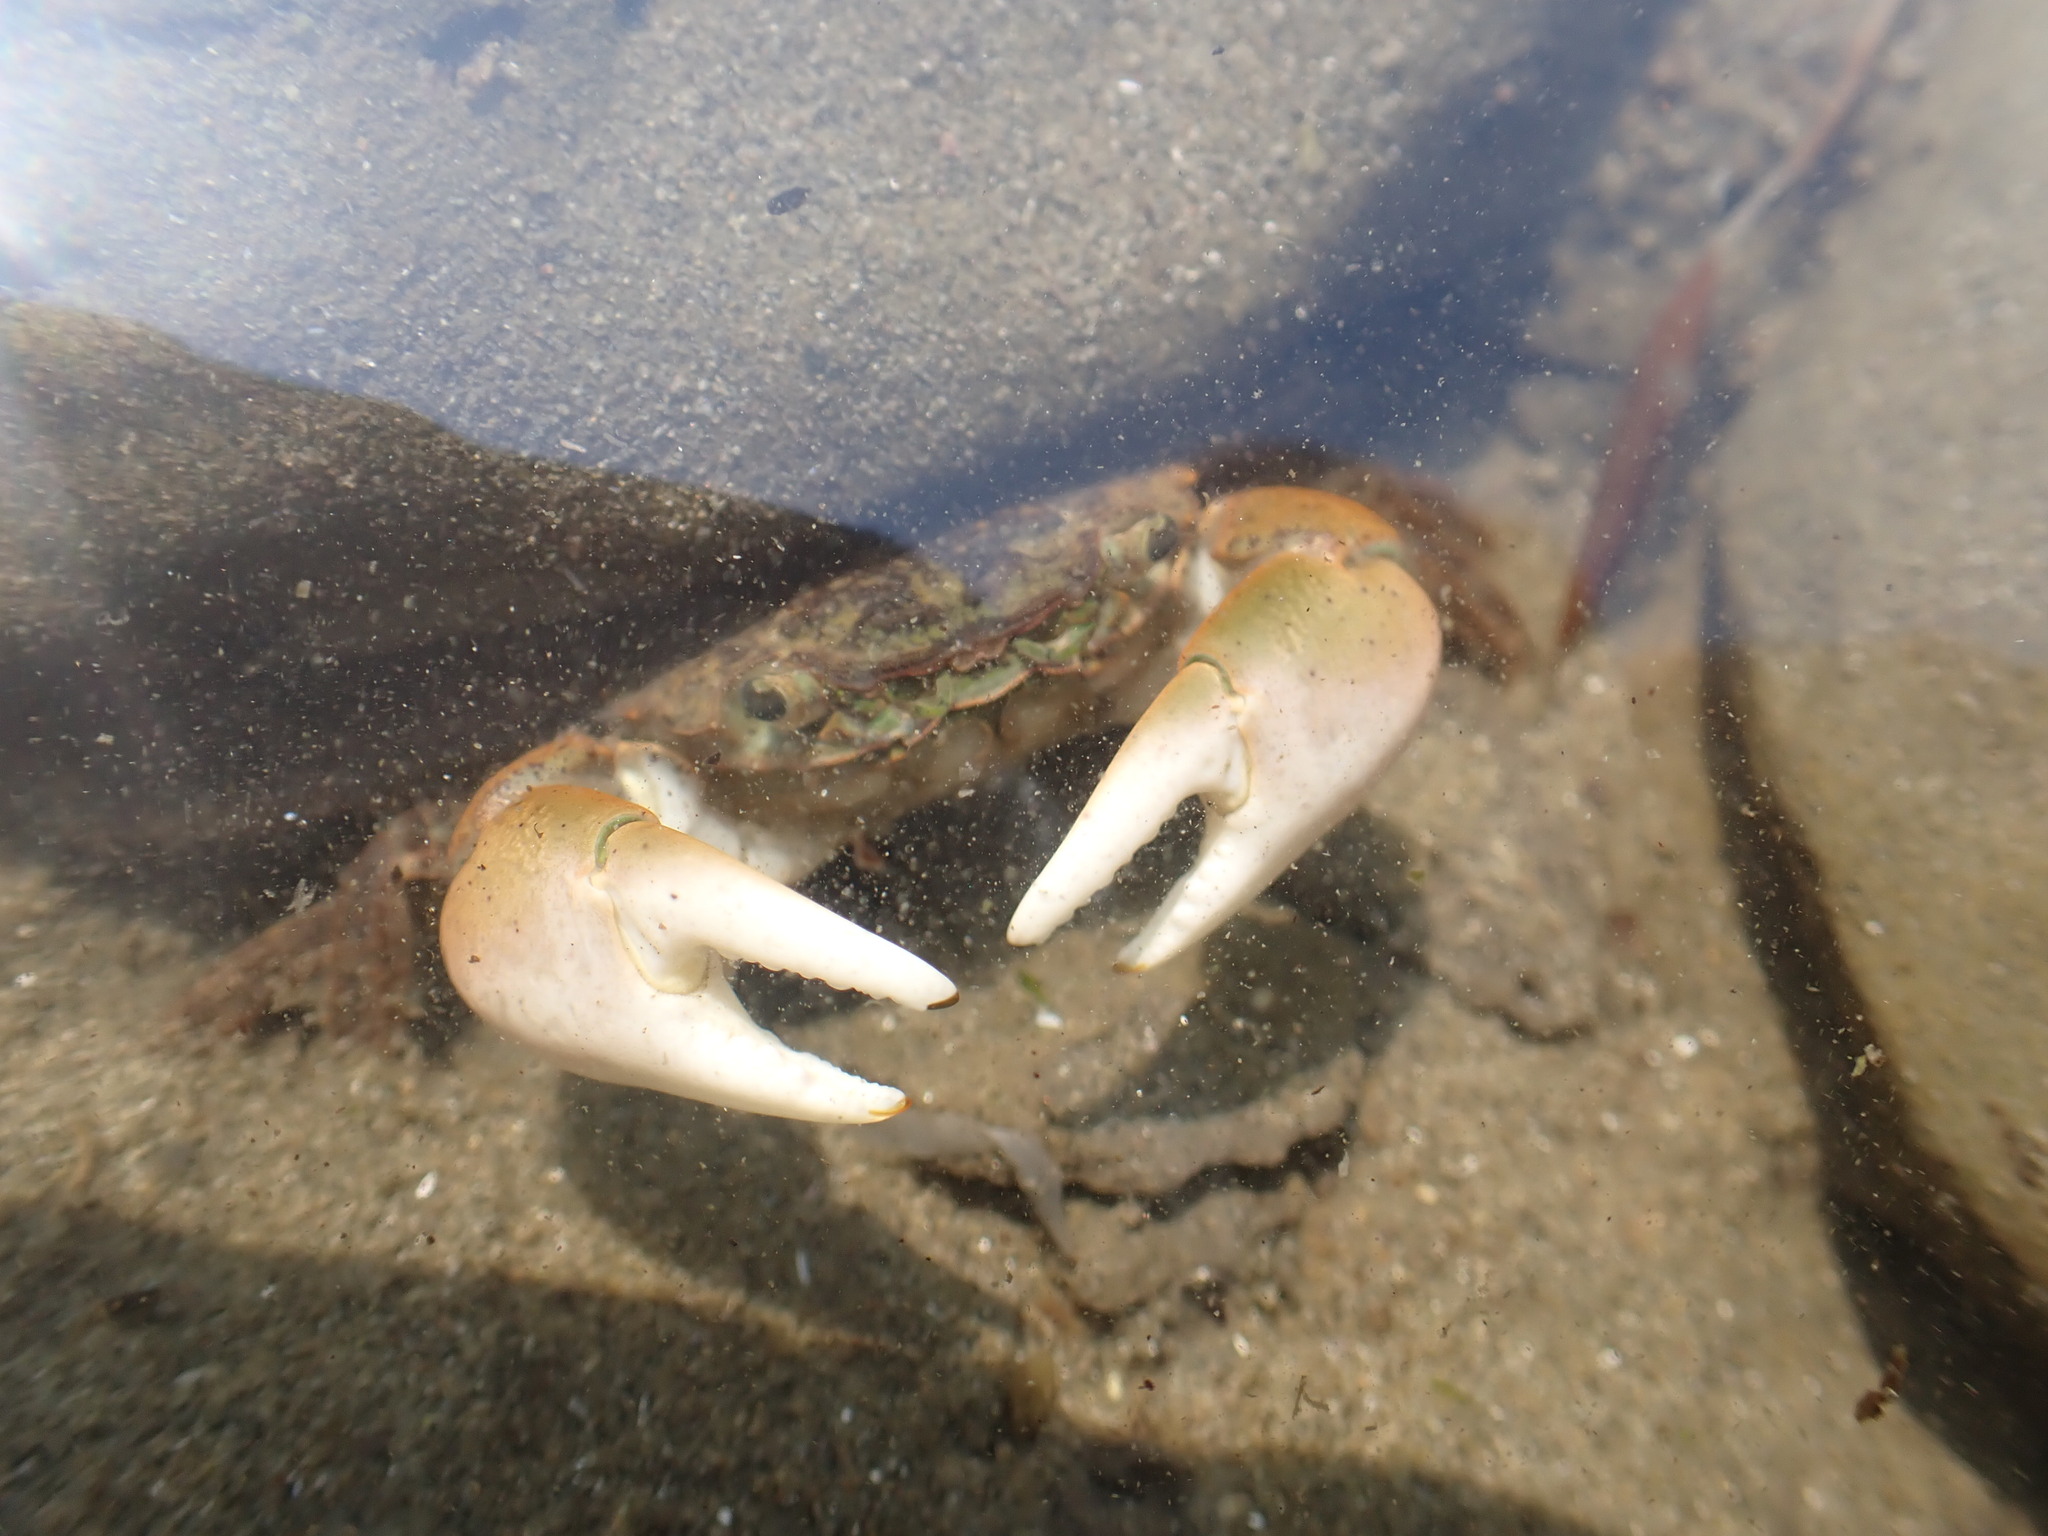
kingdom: Animalia
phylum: Arthropoda
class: Malacostraca
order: Decapoda
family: Varunidae
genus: Hemigrapsus
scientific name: Hemigrapsus oregonensis
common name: Yellow shore crab
